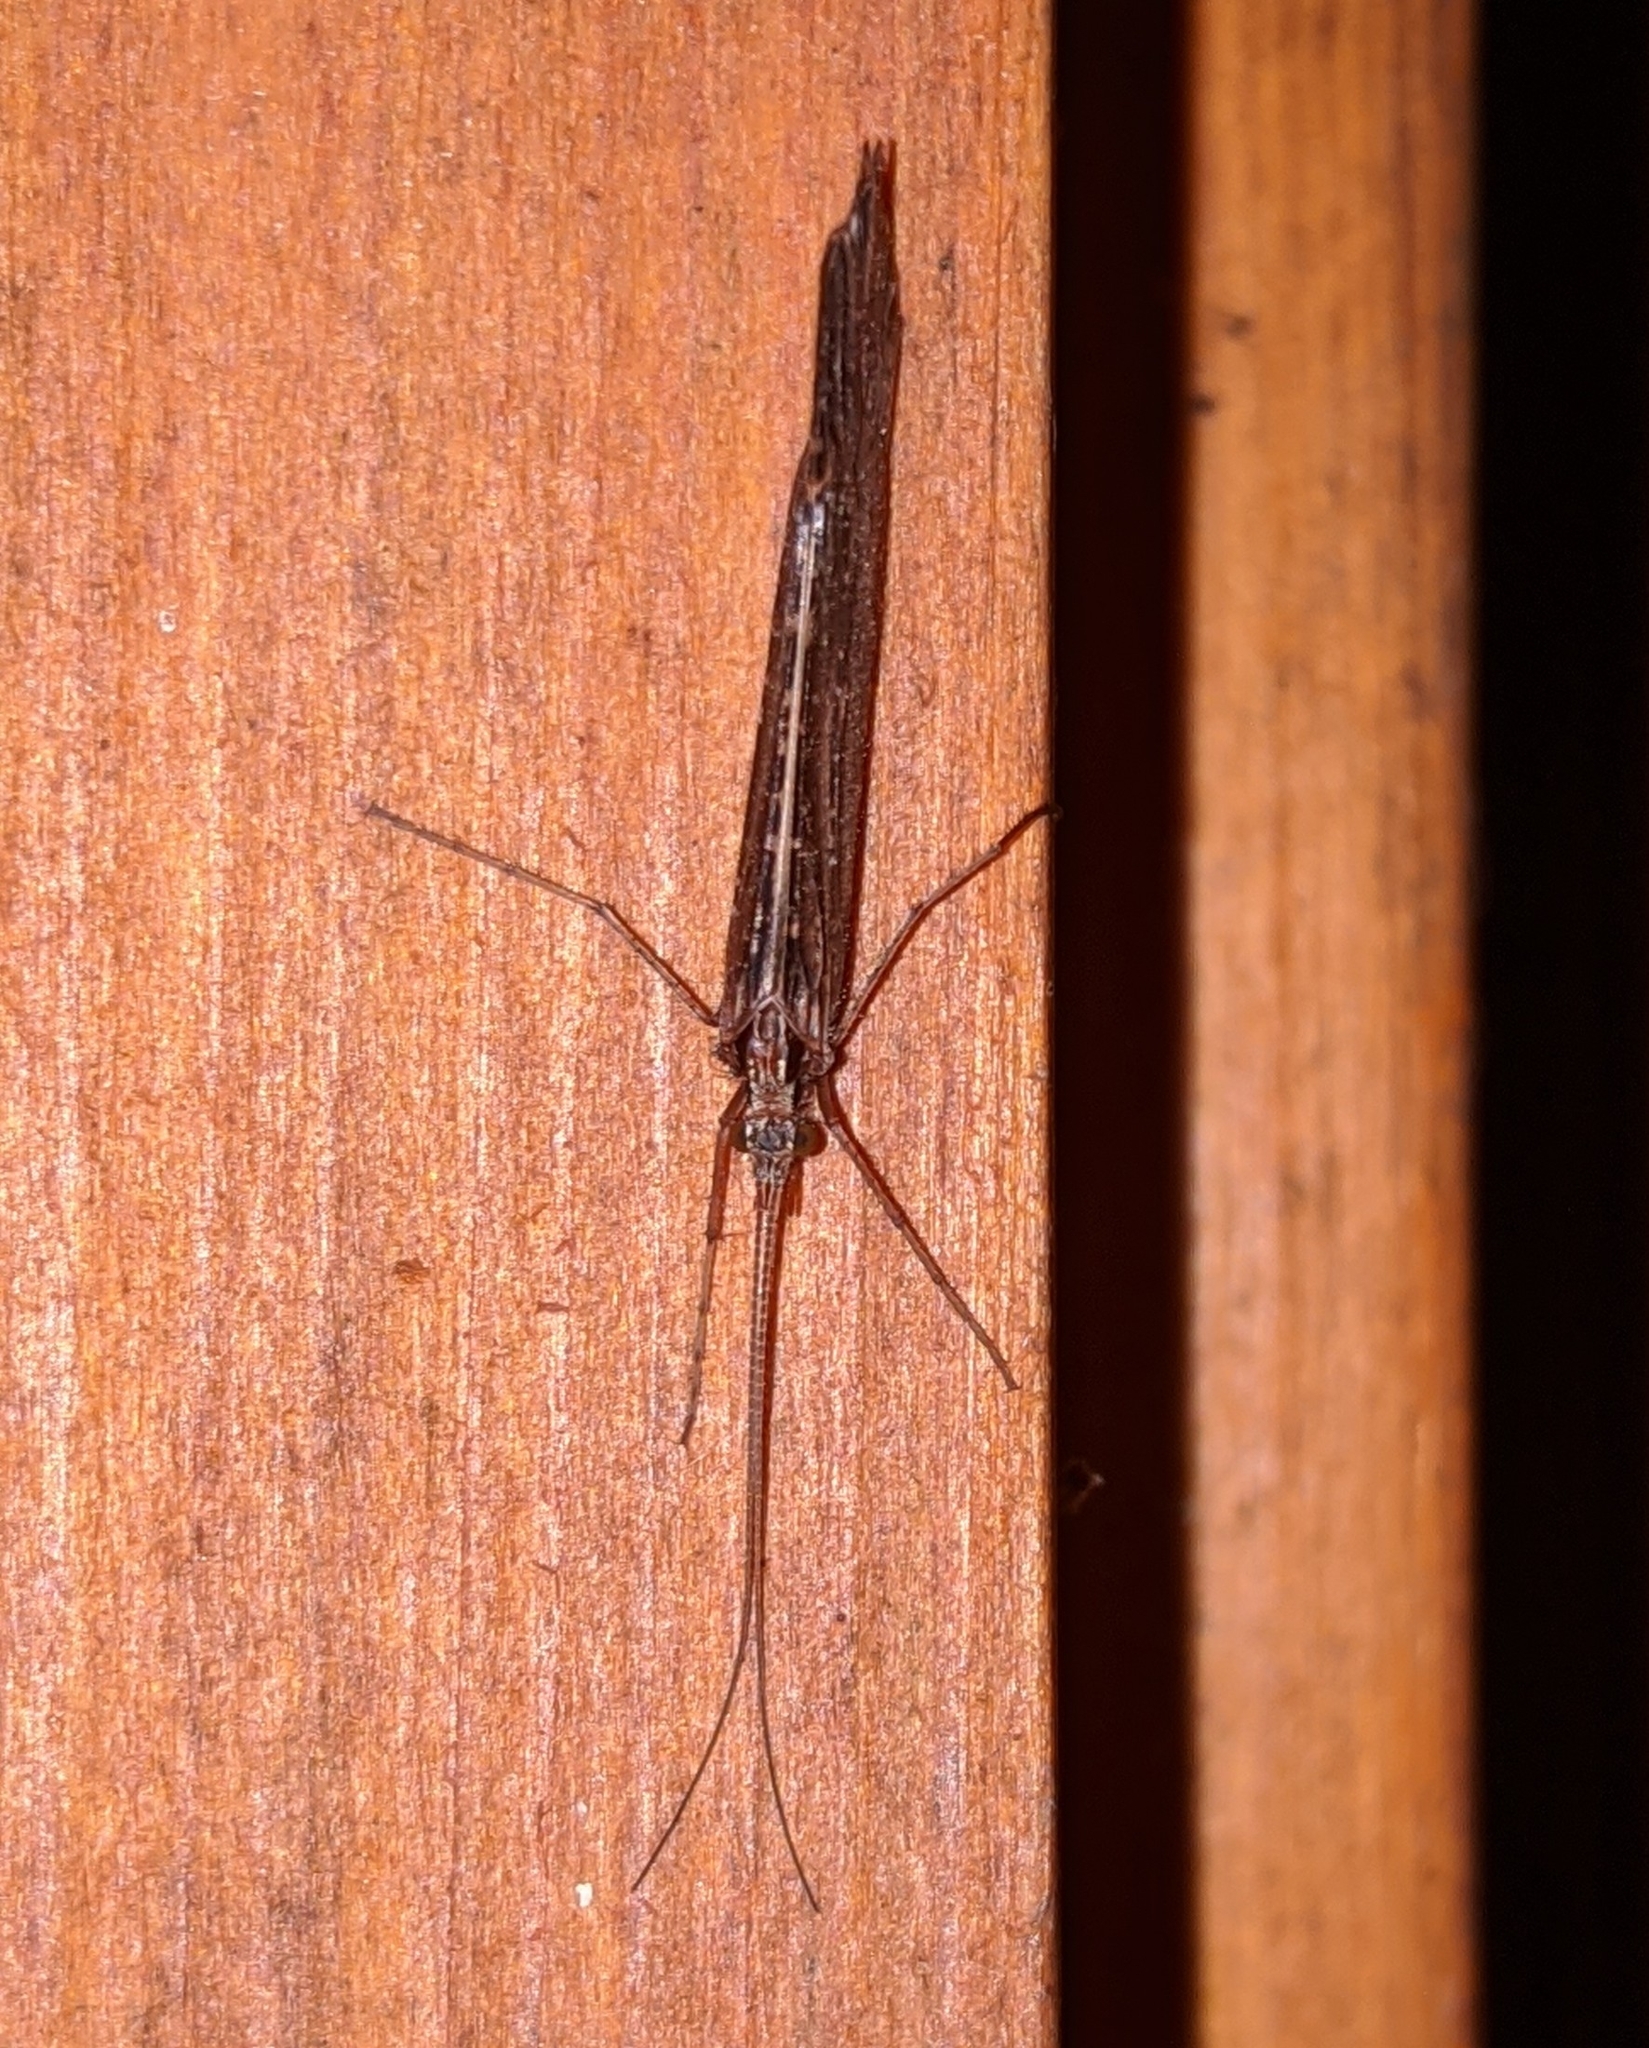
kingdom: Animalia
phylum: Arthropoda
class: Insecta
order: Trichoptera
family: Limnephilidae
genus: Glyphopsyche
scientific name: Glyphopsyche irrorata
